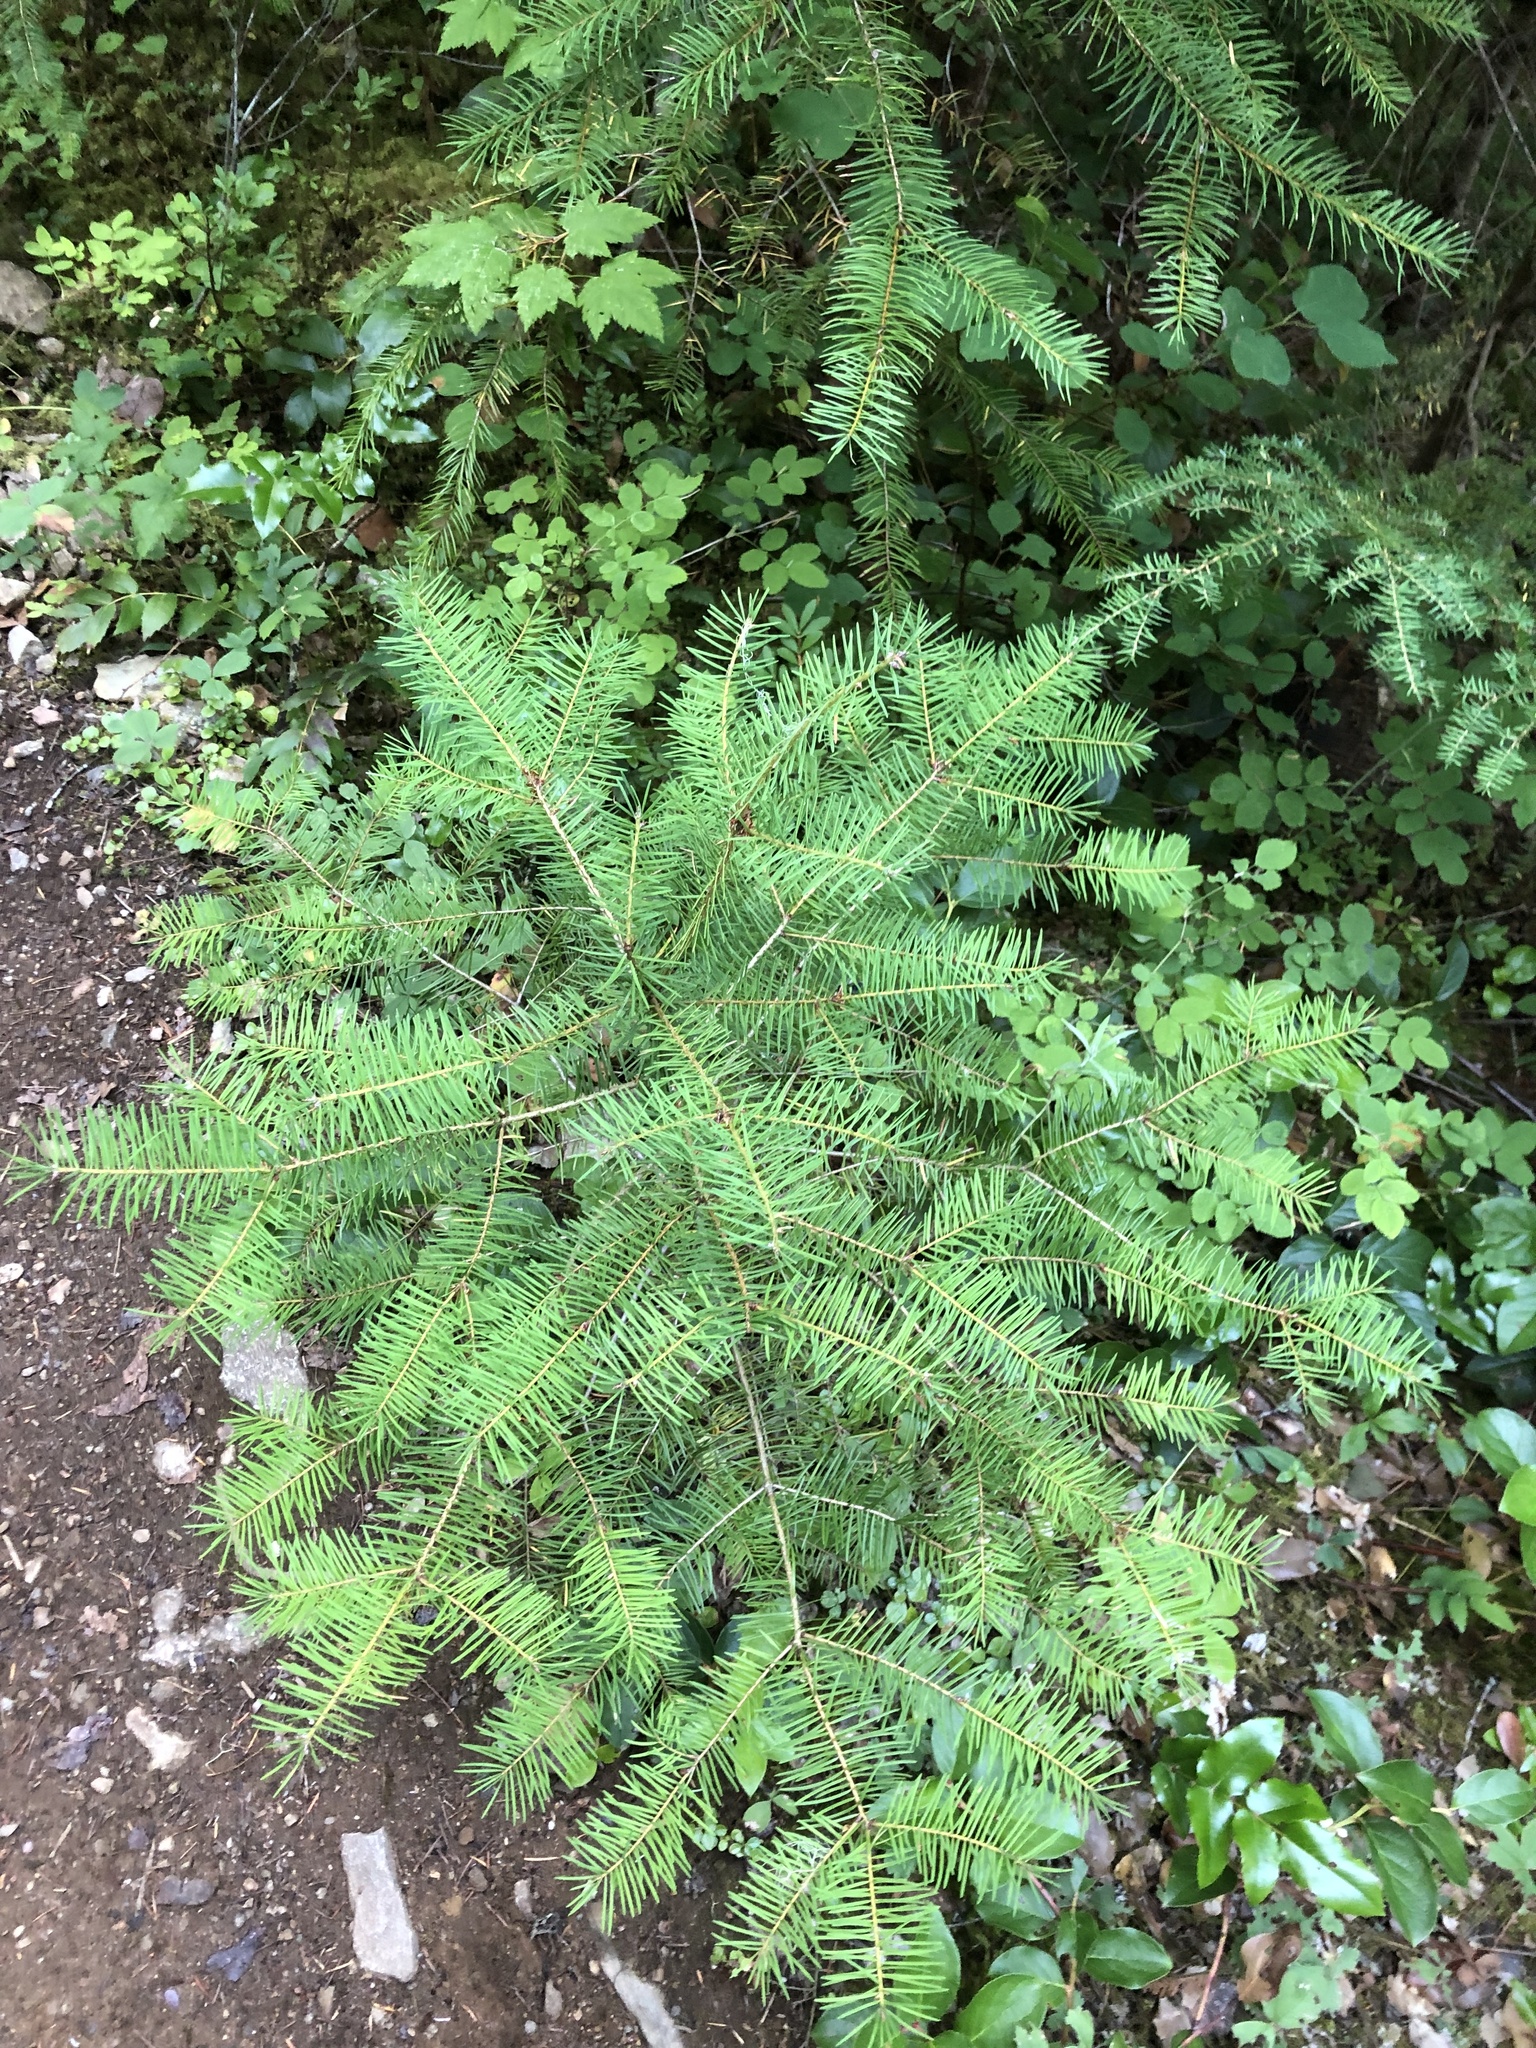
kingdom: Plantae
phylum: Tracheophyta
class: Pinopsida
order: Pinales
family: Pinaceae
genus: Pseudotsuga
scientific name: Pseudotsuga menziesii
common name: Douglas fir
